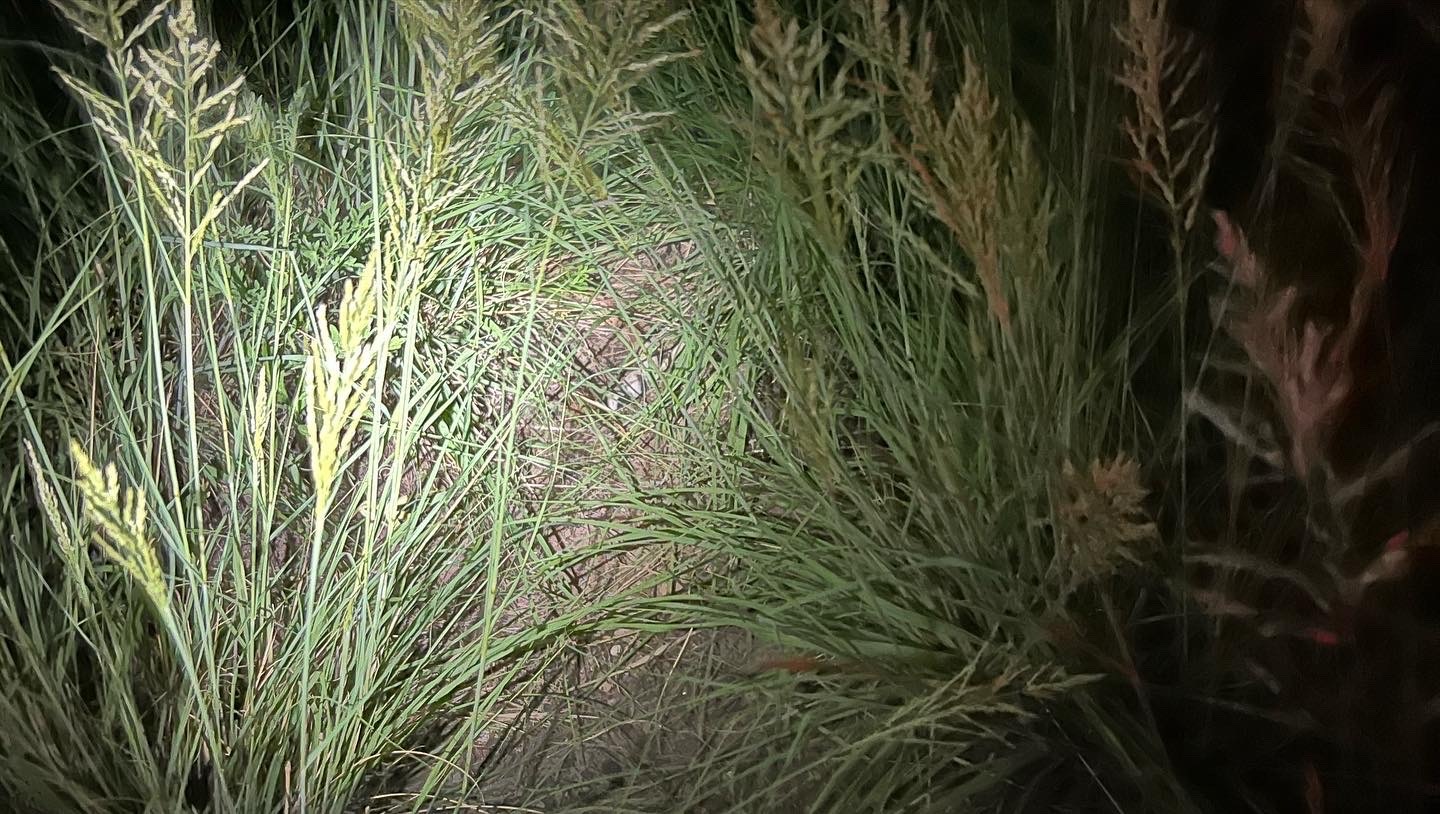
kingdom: Animalia
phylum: Chordata
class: Squamata
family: Viperidae
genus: Crotalus
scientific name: Crotalus atrox
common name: Western diamond-backed rattlesnake
